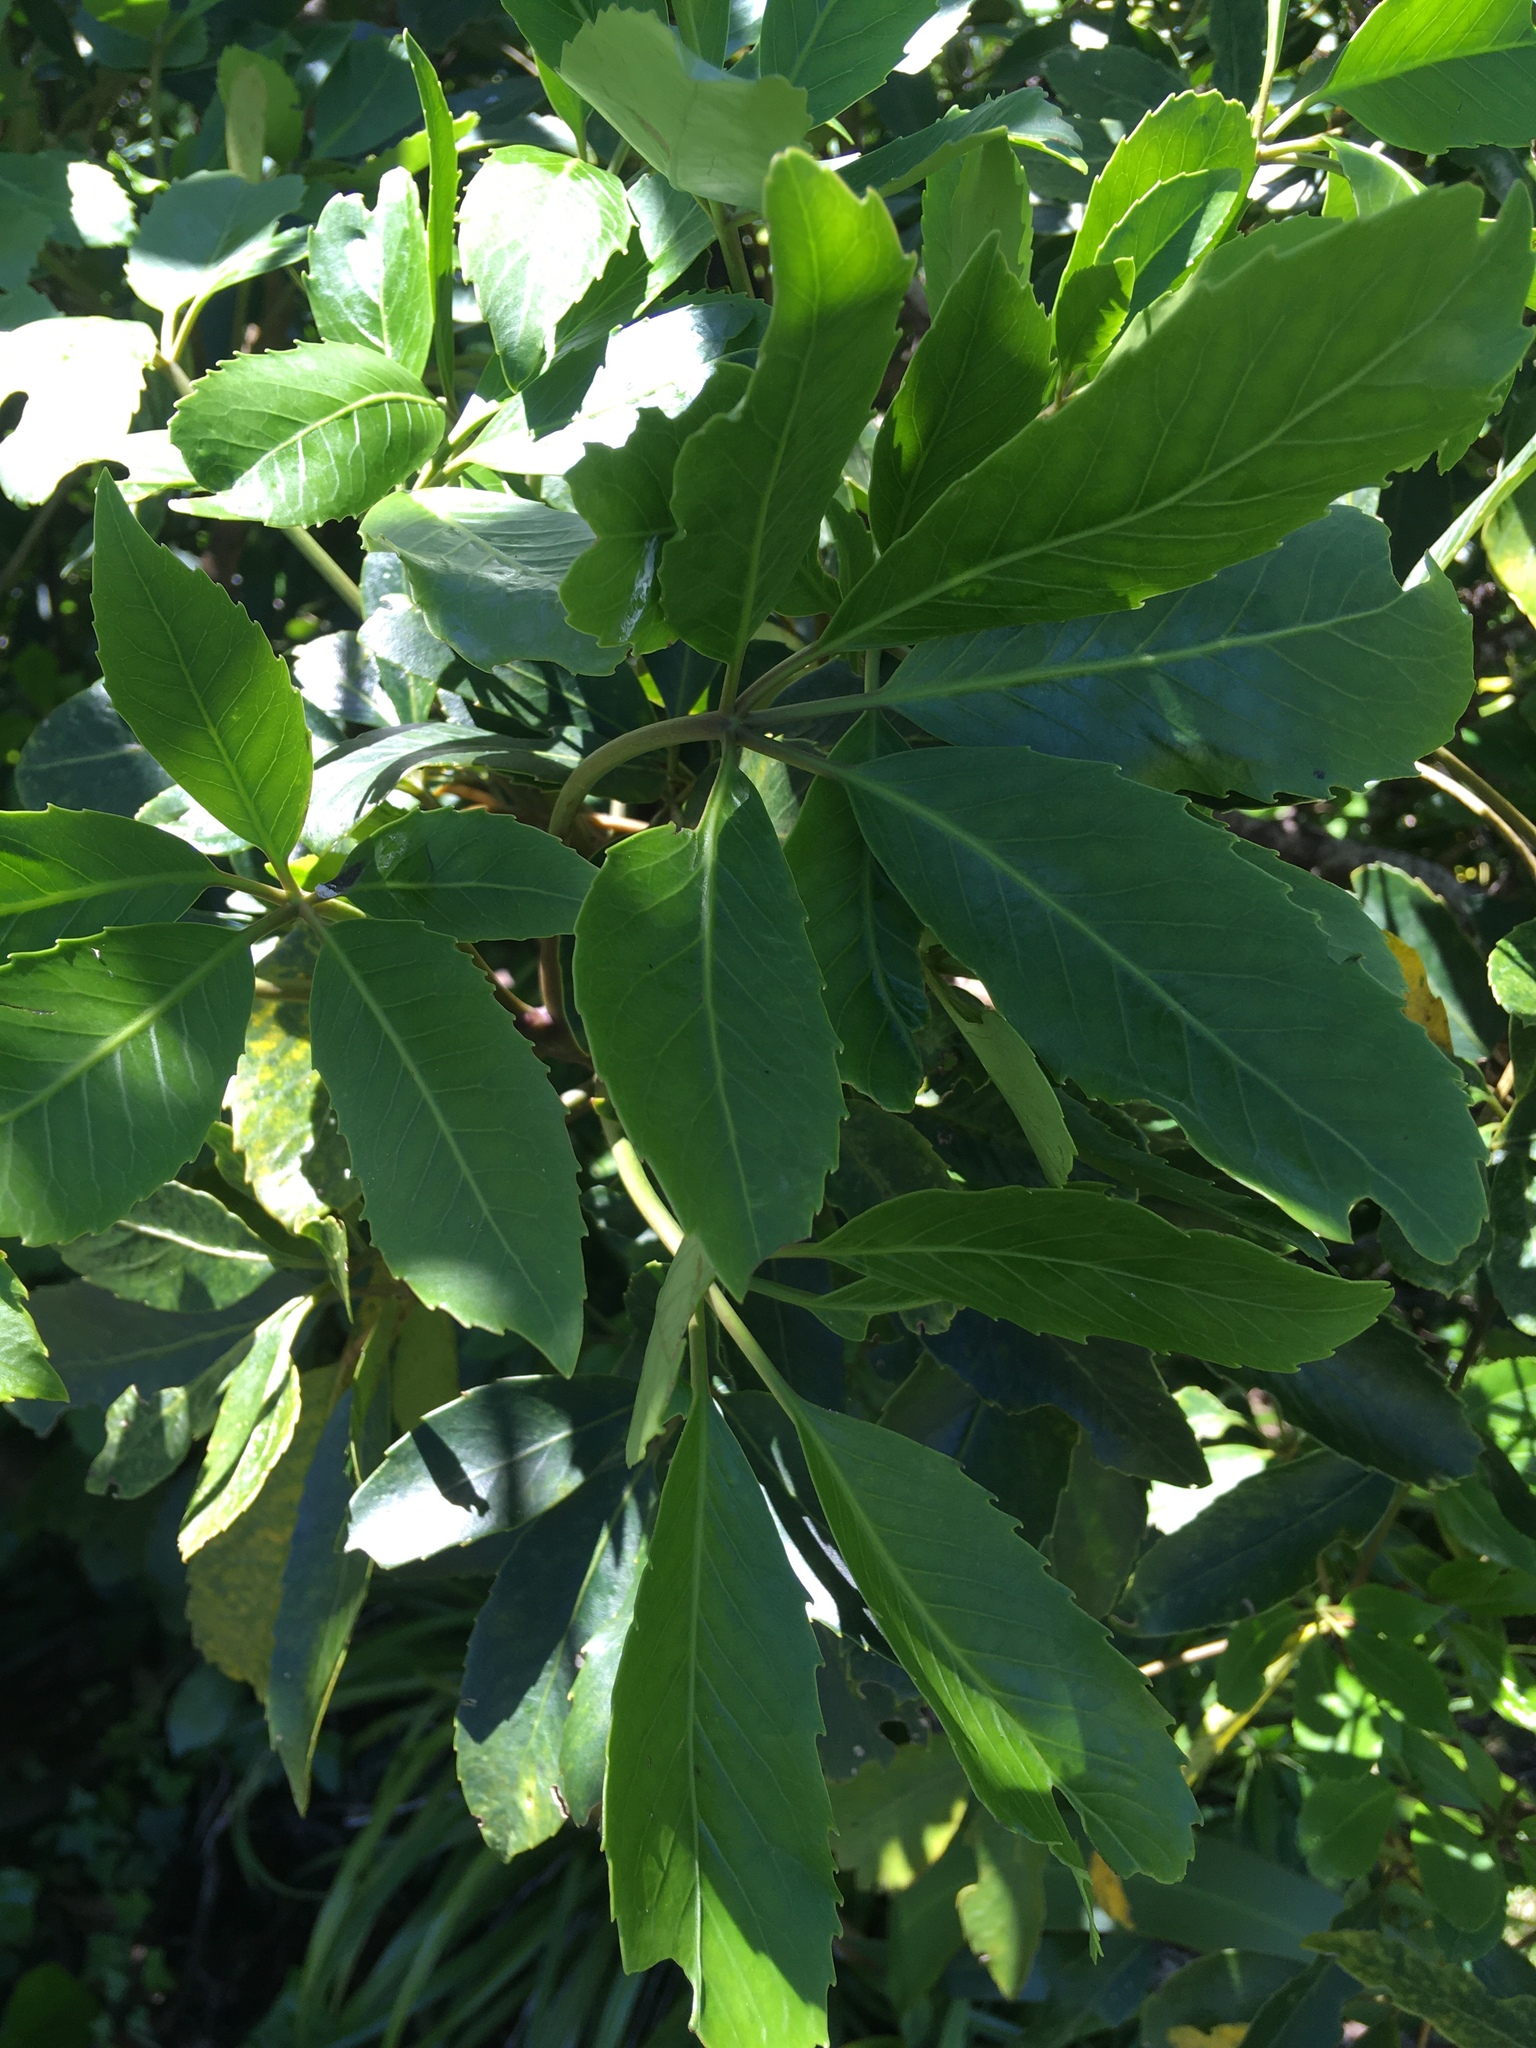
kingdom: Plantae
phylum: Tracheophyta
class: Magnoliopsida
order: Apiales
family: Araliaceae
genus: Neopanax
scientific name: Neopanax arboreus
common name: Five-fingers
